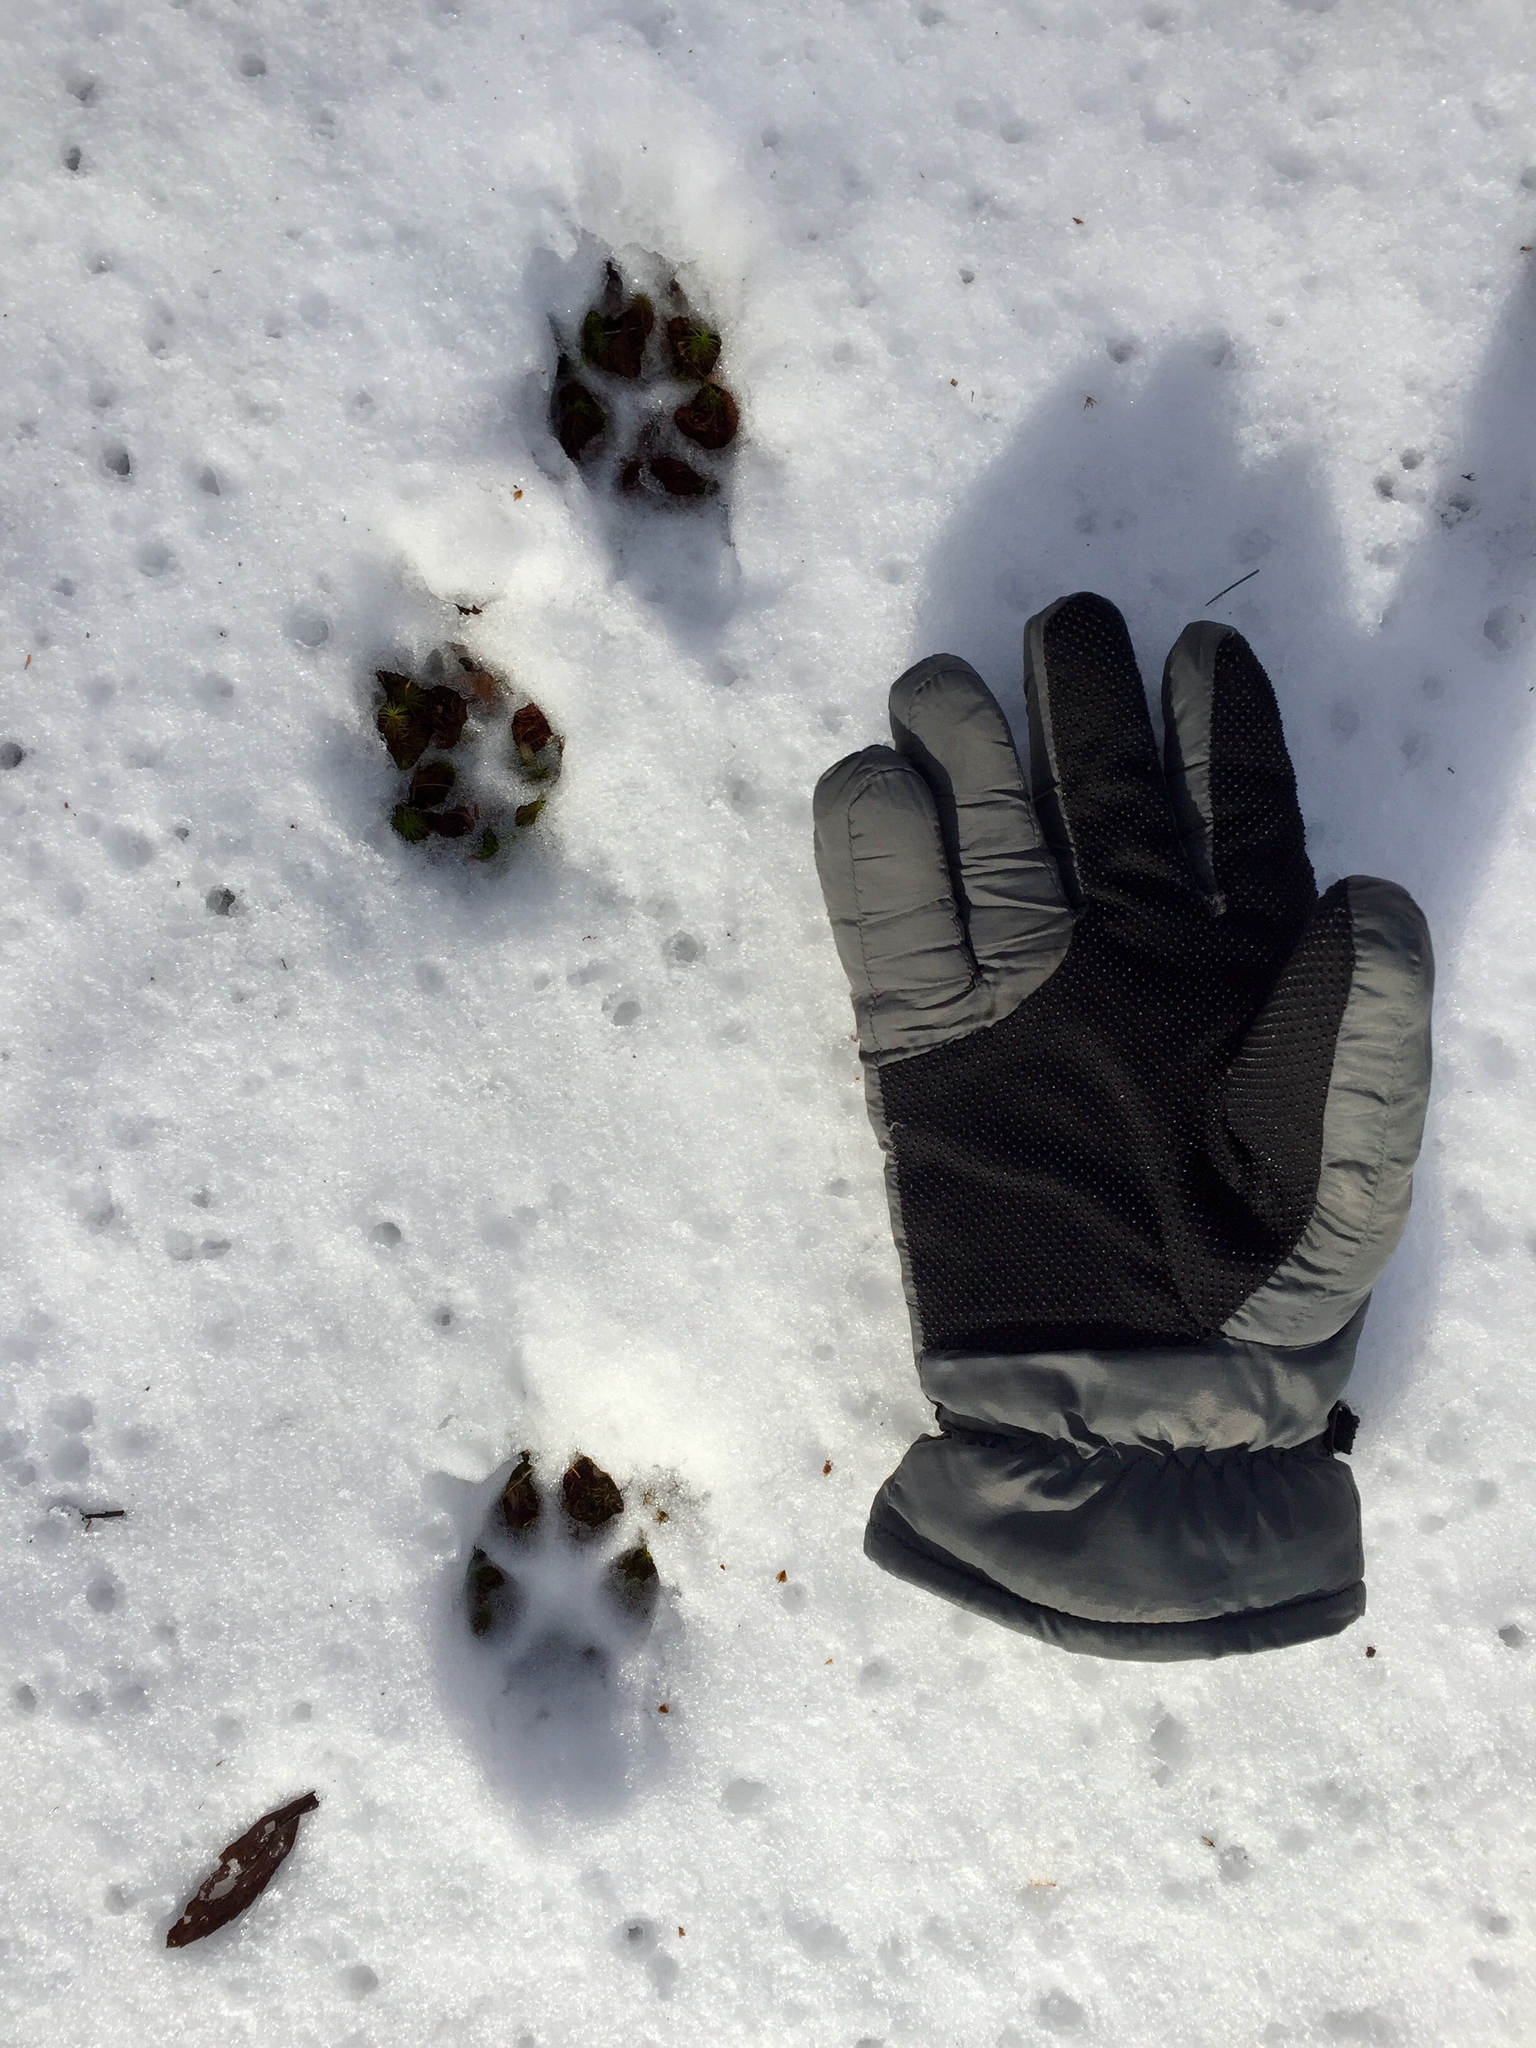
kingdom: Animalia
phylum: Chordata
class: Mammalia
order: Carnivora
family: Canidae
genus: Canis
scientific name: Canis latrans
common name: Coyote
